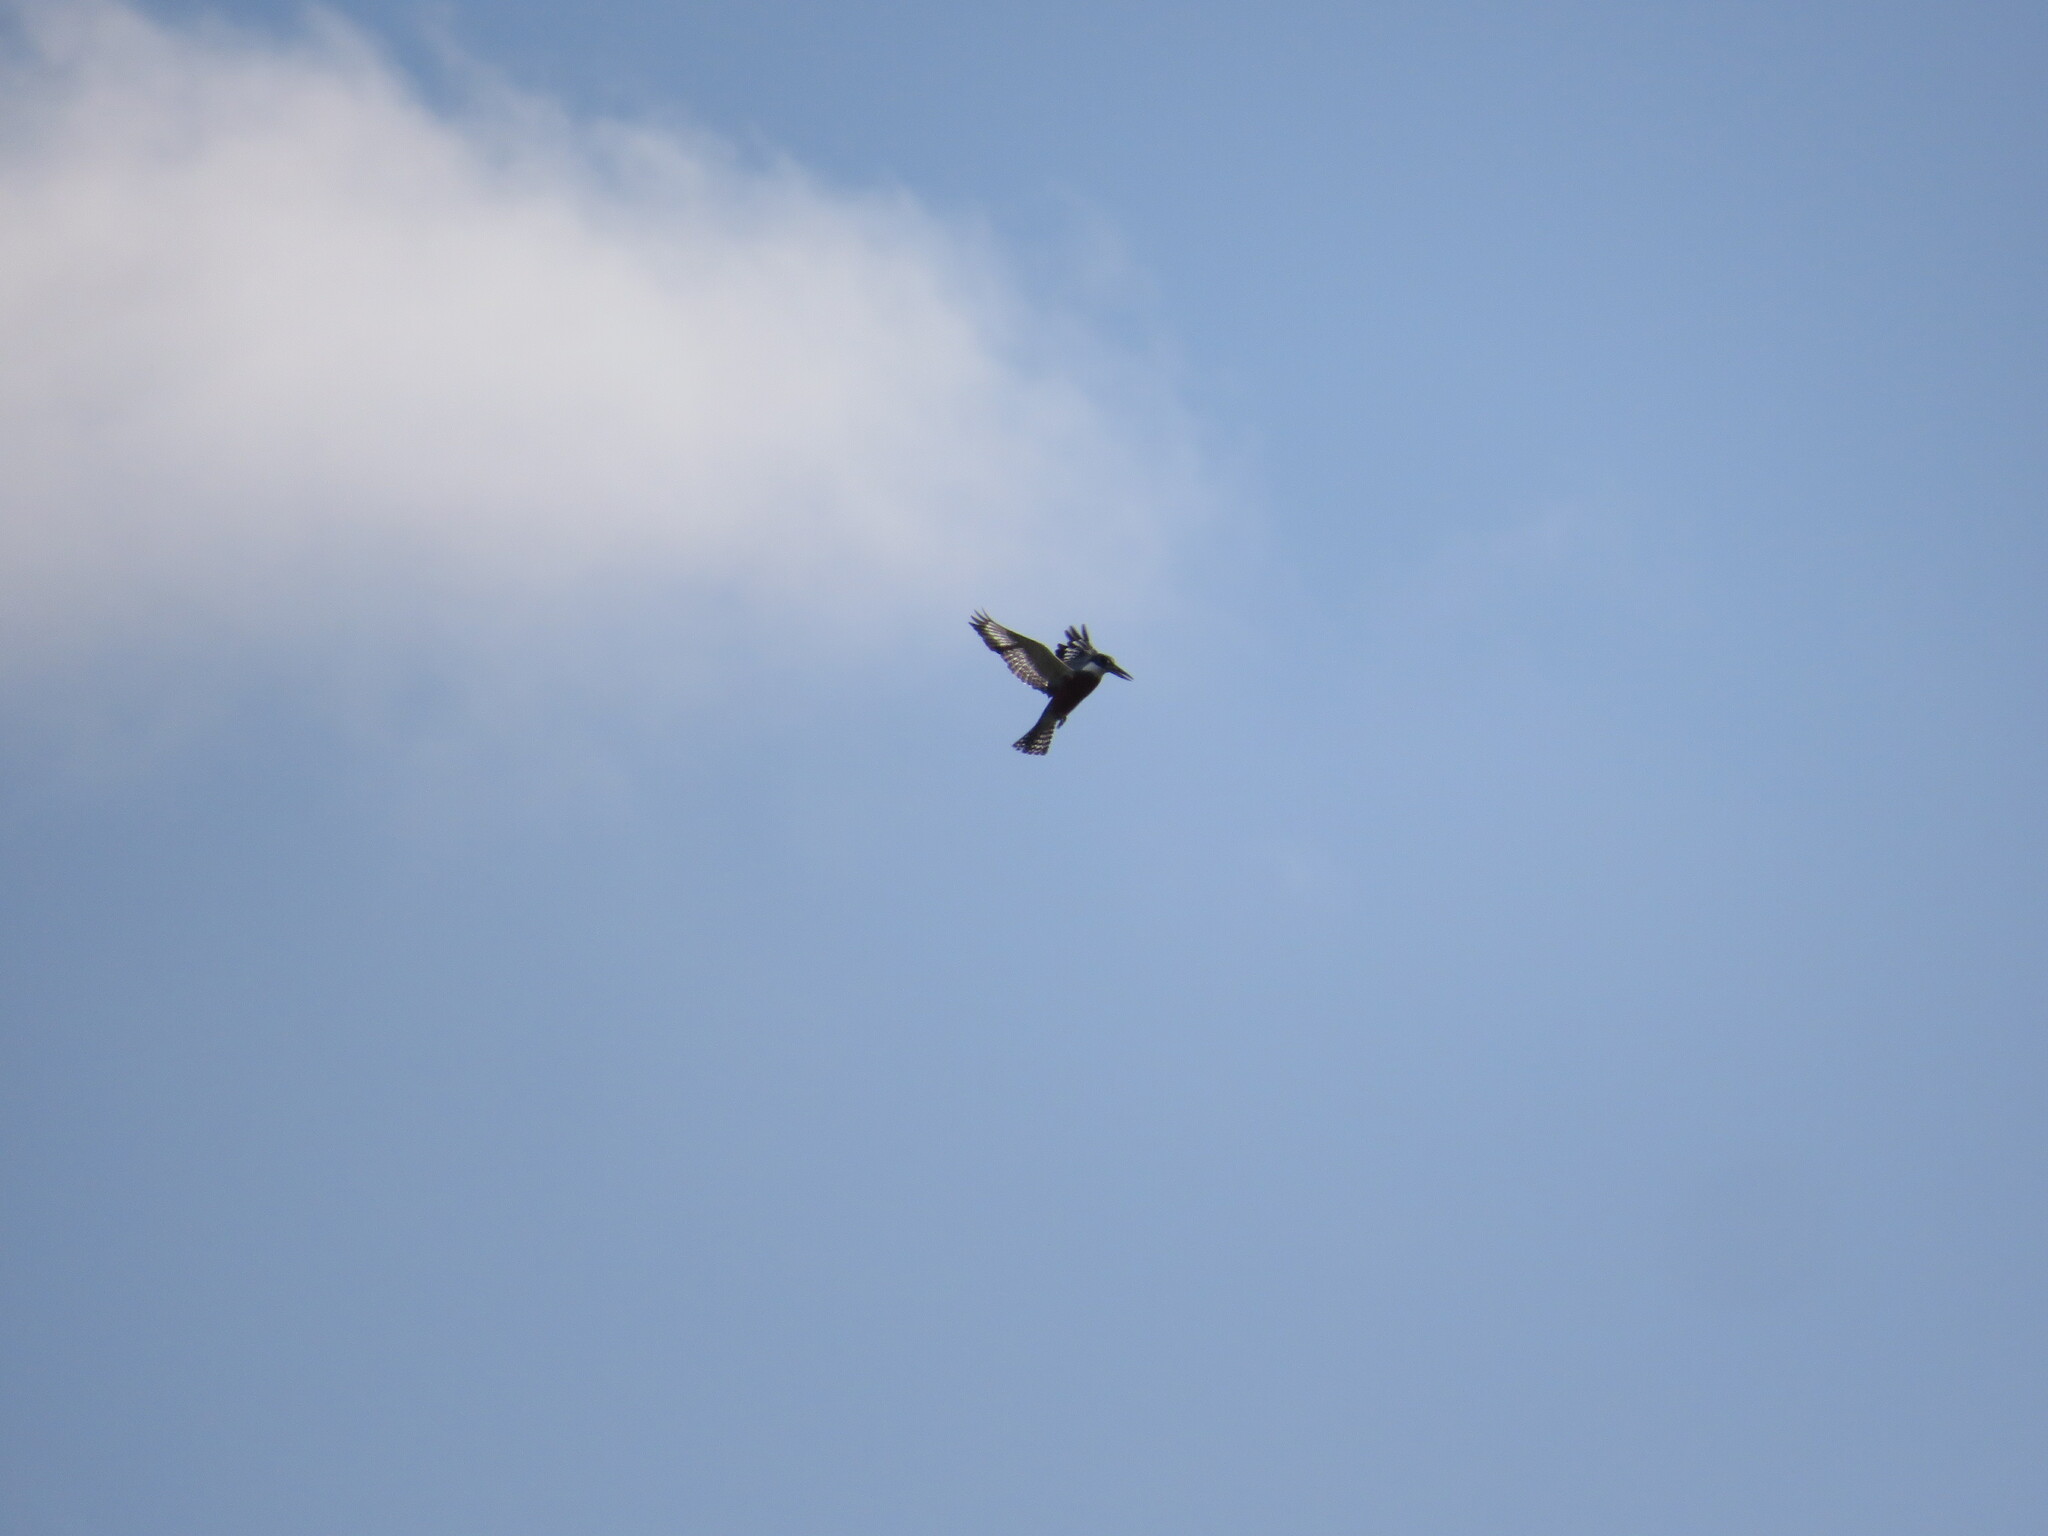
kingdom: Animalia
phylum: Chordata
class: Aves
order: Coraciiformes
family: Alcedinidae
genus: Megaceryle
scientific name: Megaceryle torquata
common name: Ringed kingfisher
